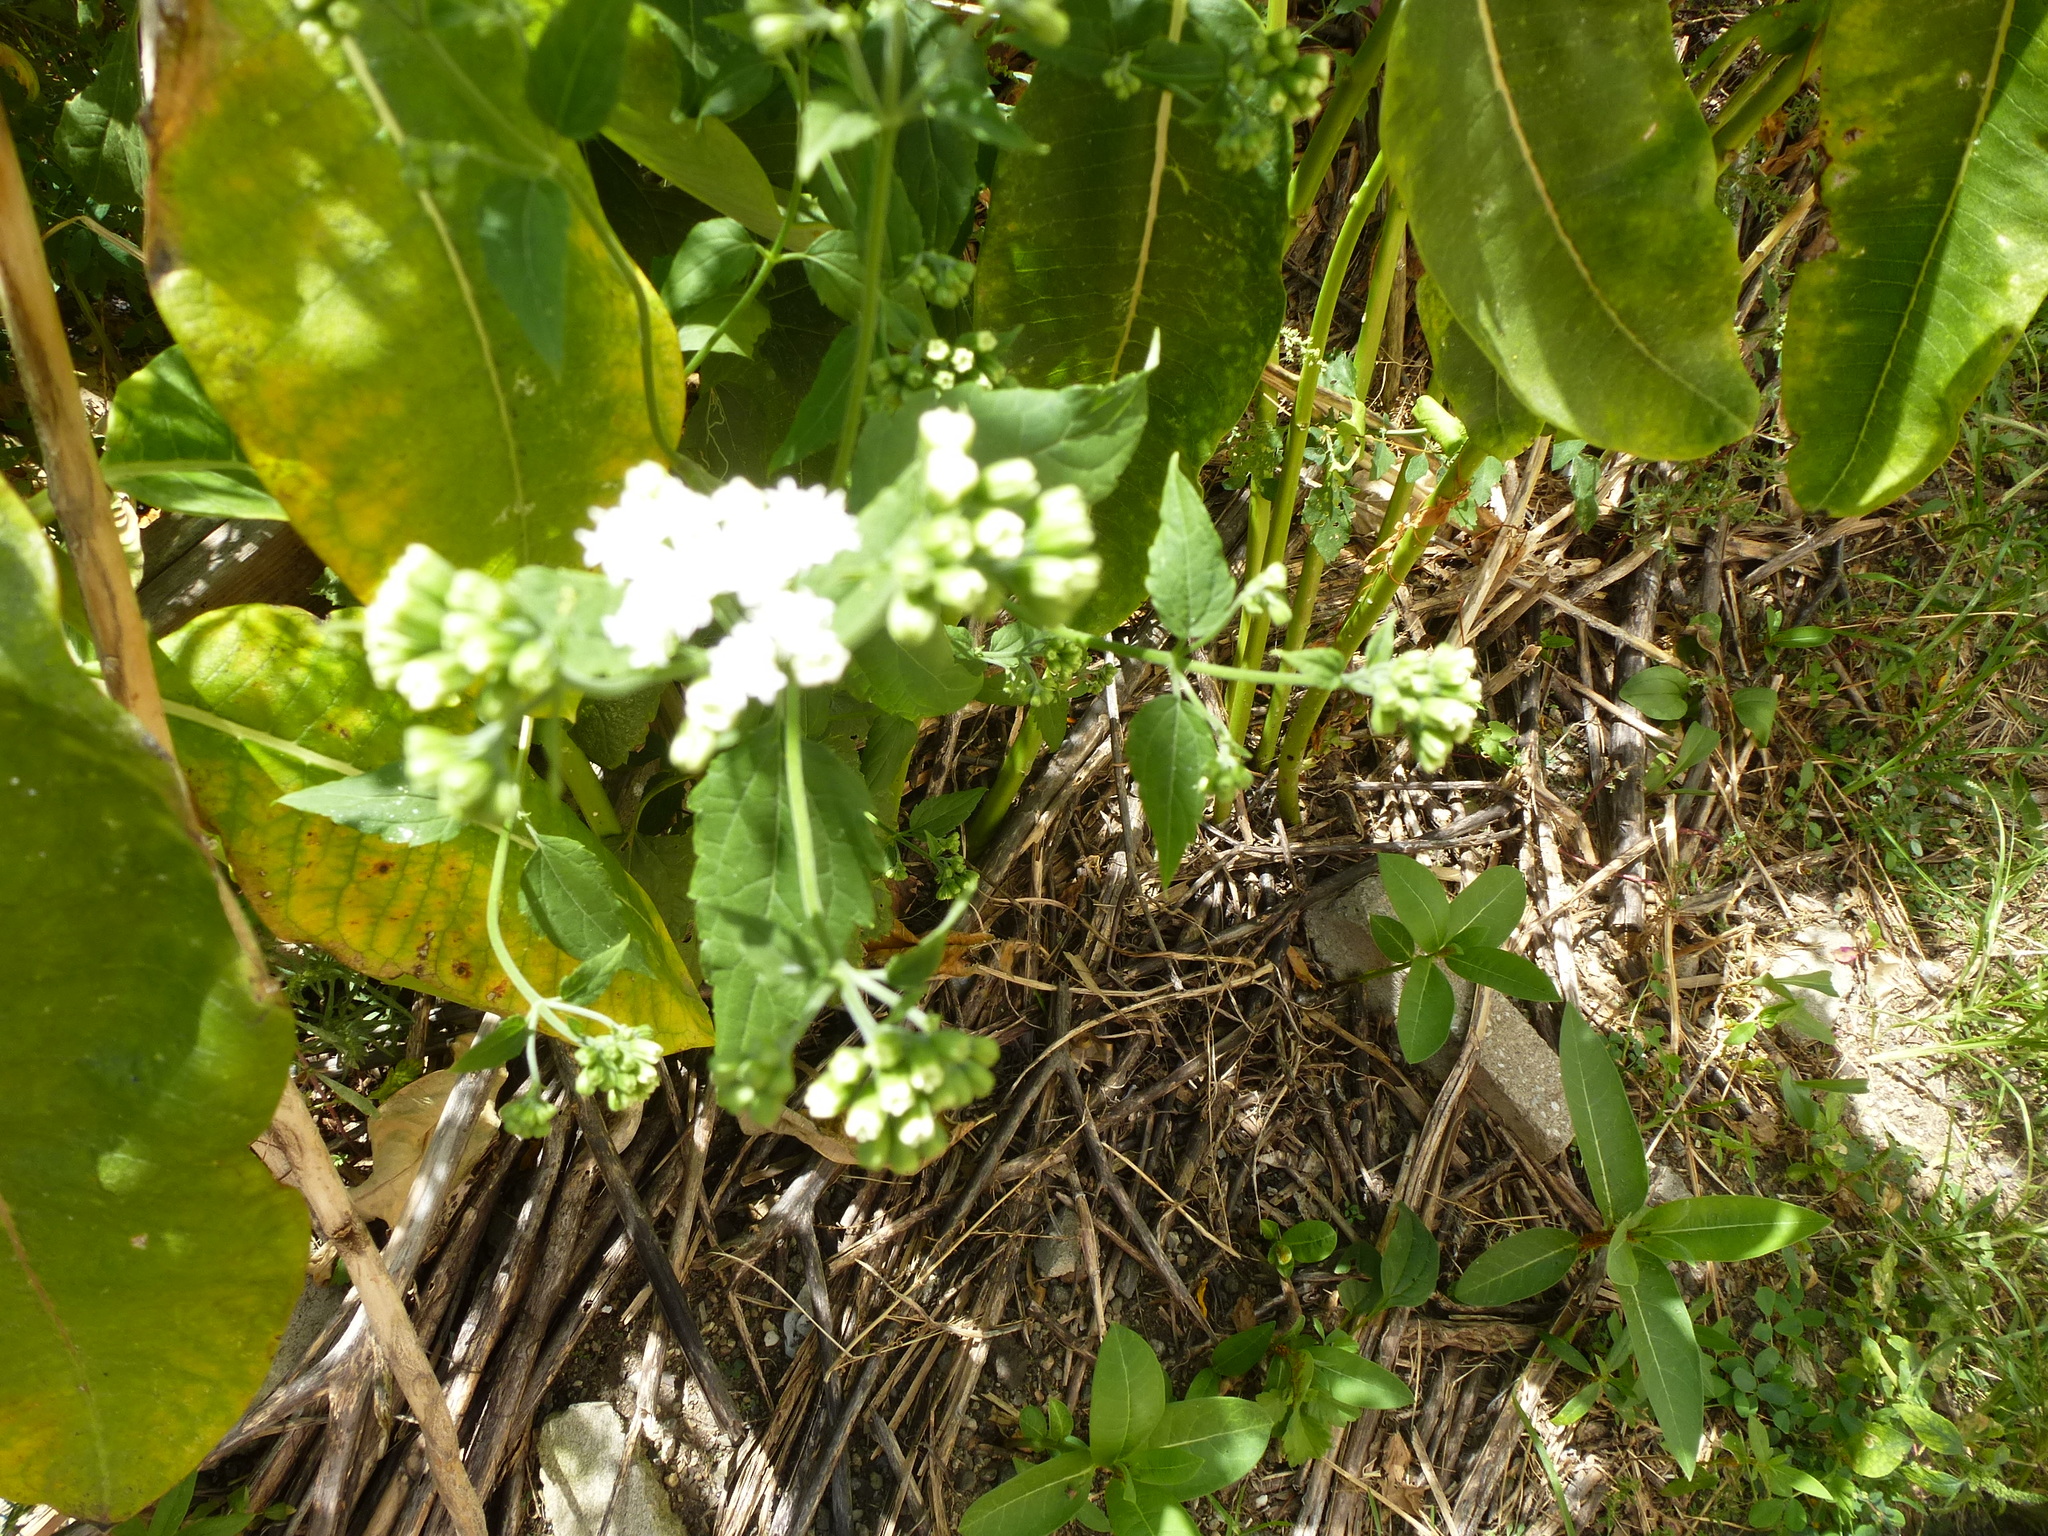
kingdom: Plantae
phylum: Tracheophyta
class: Magnoliopsida
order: Asterales
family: Asteraceae
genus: Ageratina
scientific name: Ageratina altissima
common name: White snakeroot
